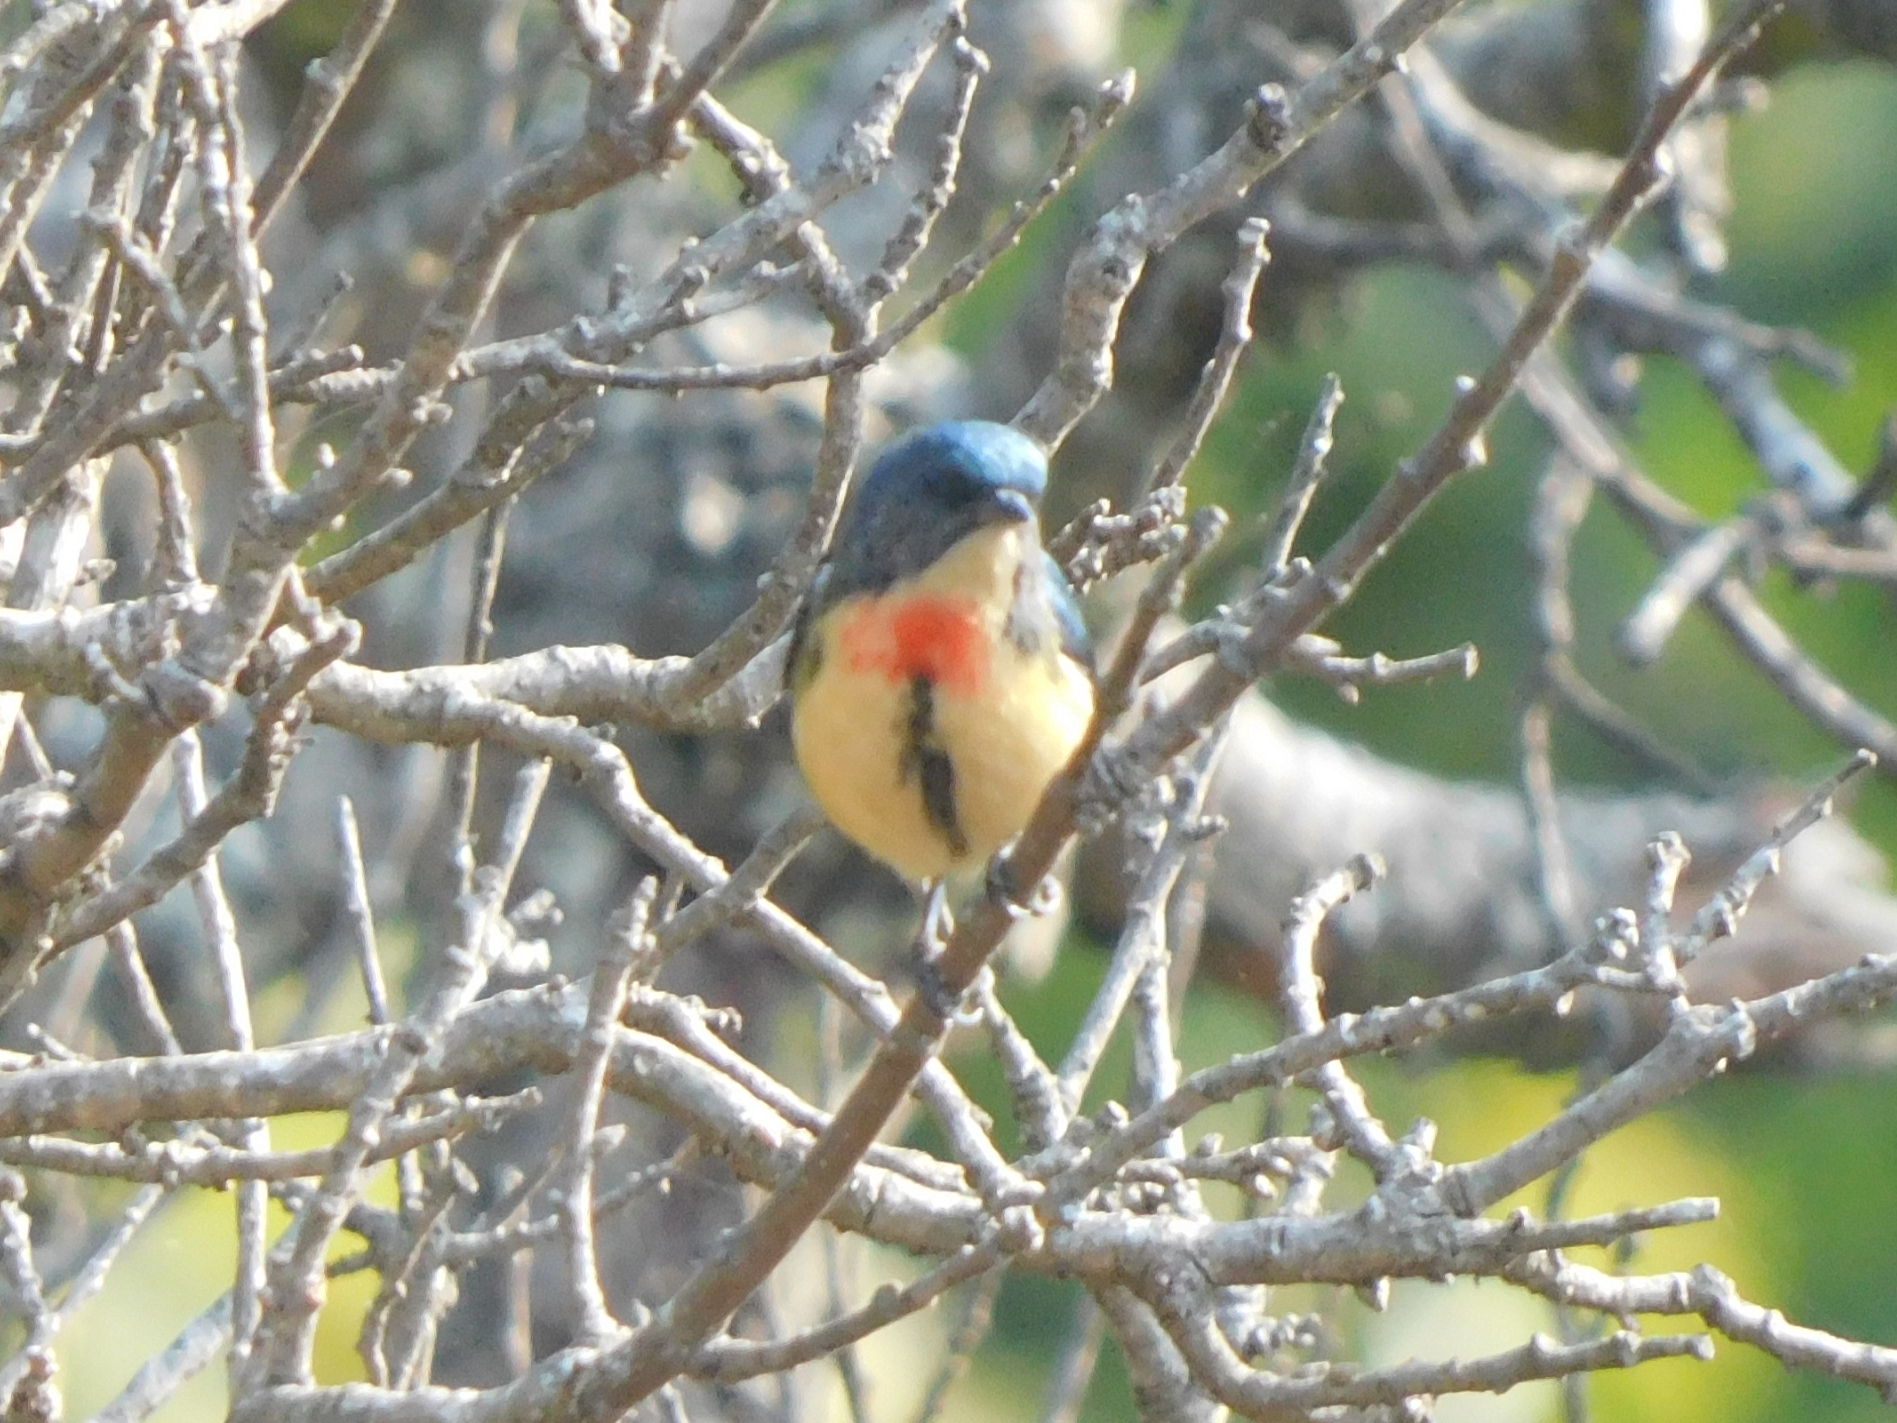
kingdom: Animalia
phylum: Chordata
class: Aves
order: Passeriformes
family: Dicaeidae
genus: Dicaeum
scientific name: Dicaeum ignipectus
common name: Fire-breasted flowerpecker
